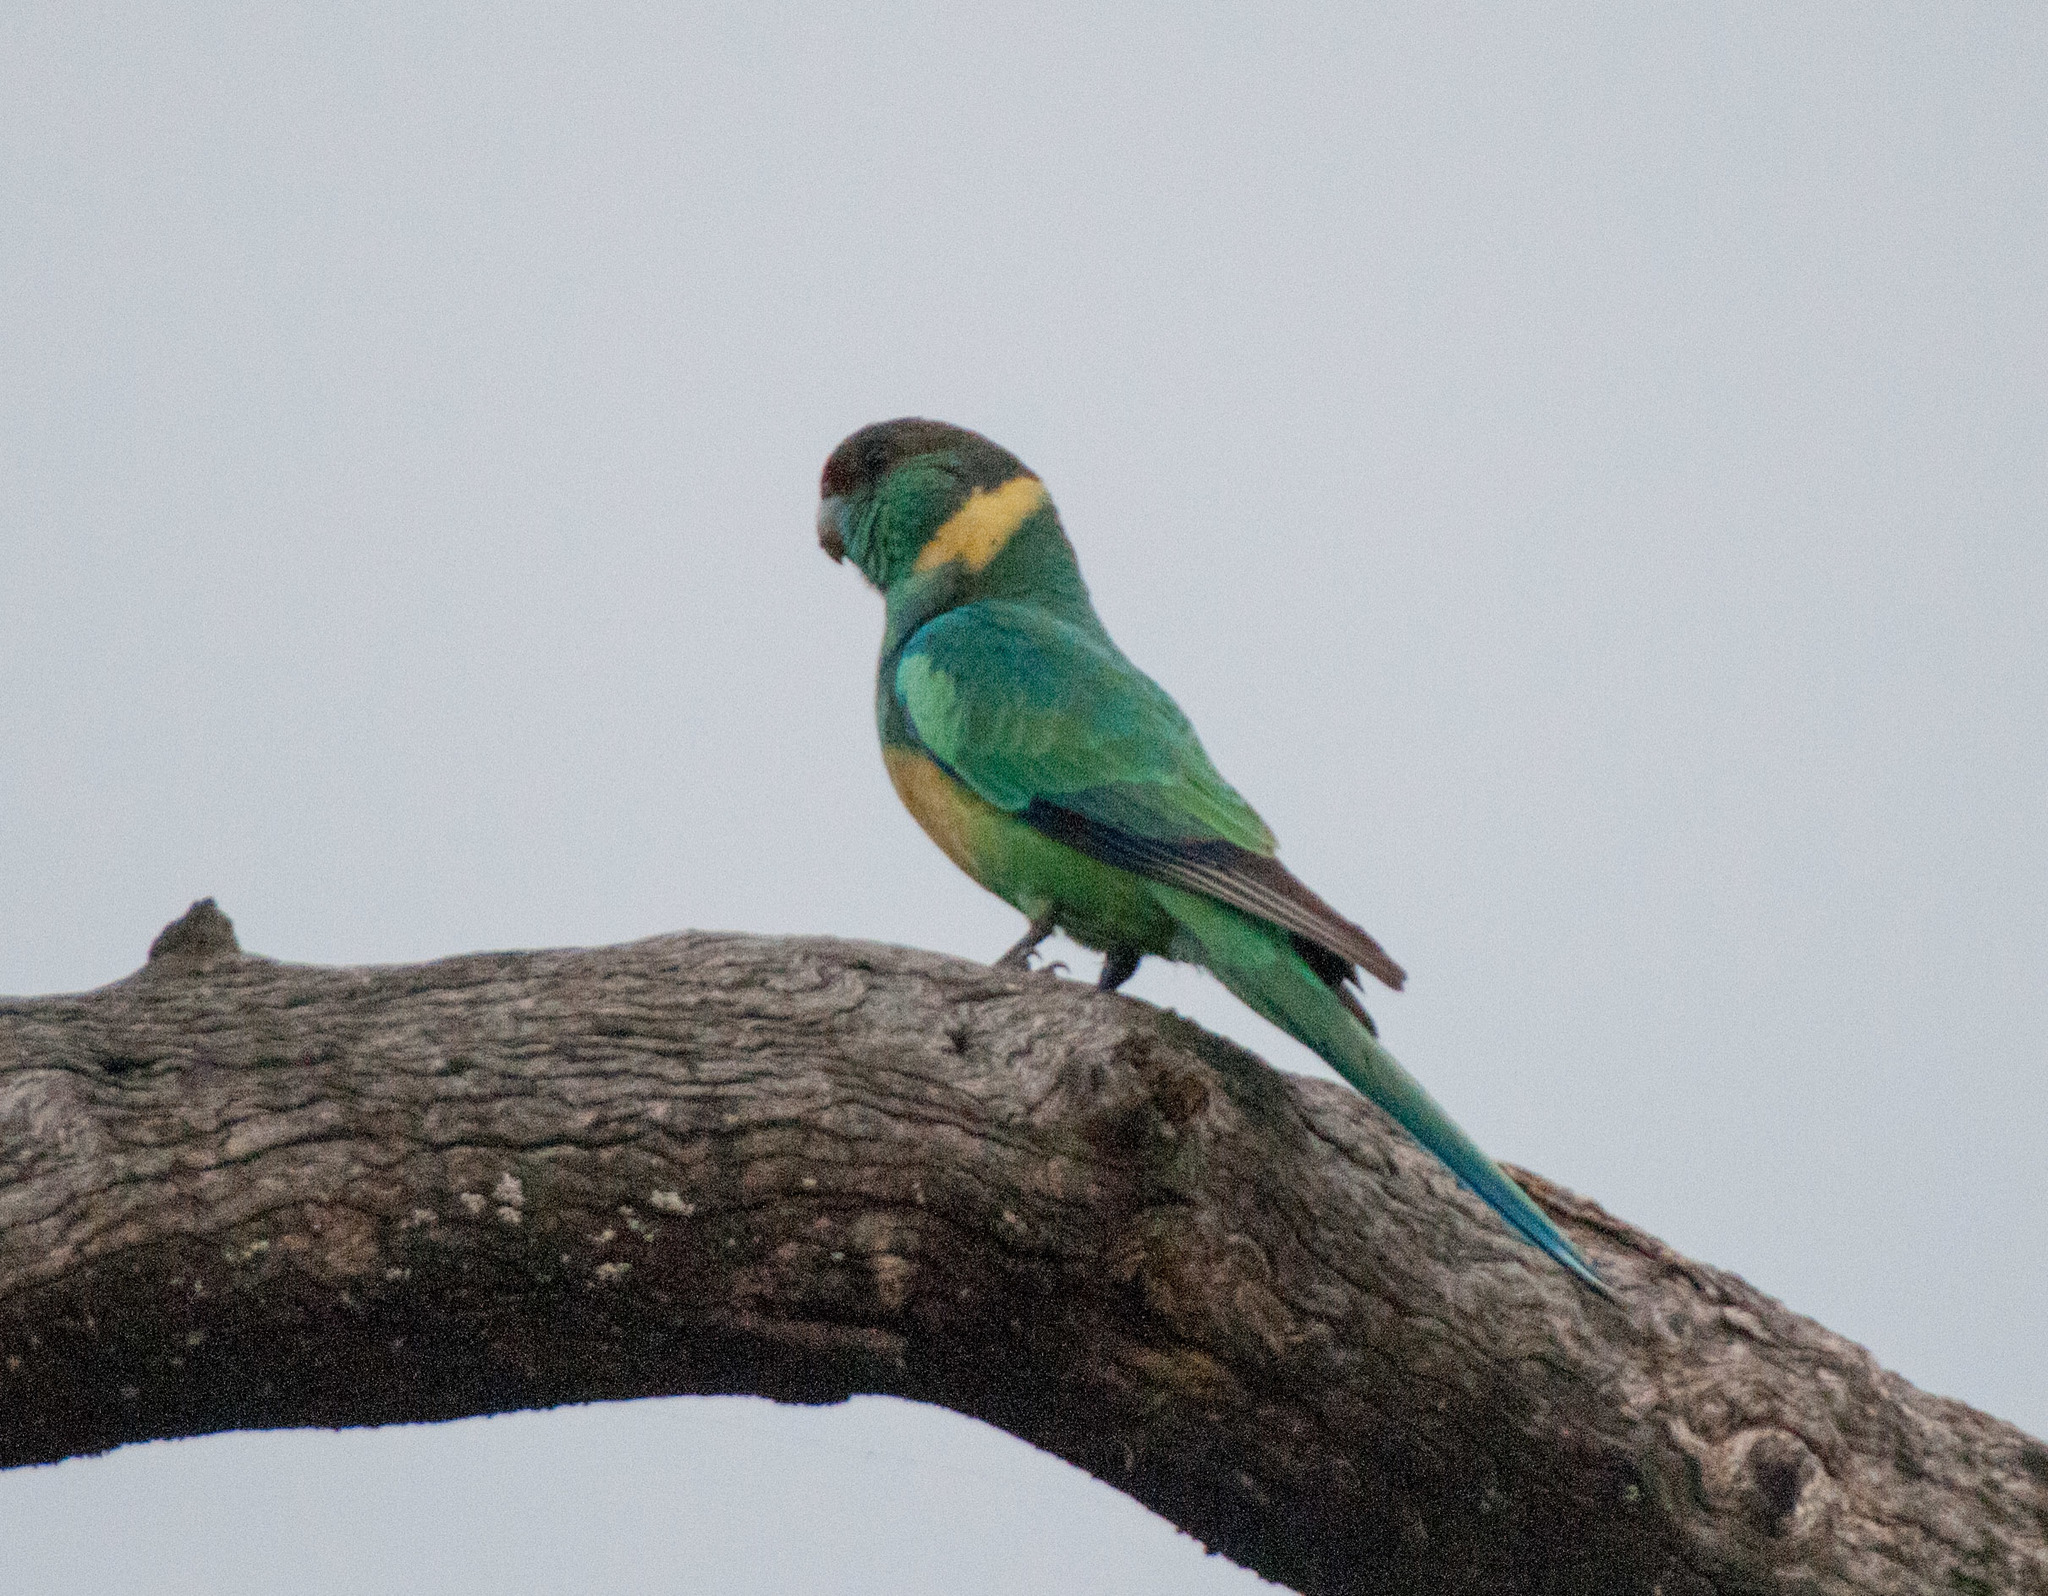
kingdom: Animalia
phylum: Chordata
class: Aves
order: Psittaciformes
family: Psittacidae
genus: Barnardius
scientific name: Barnardius zonarius
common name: Australian ringneck
